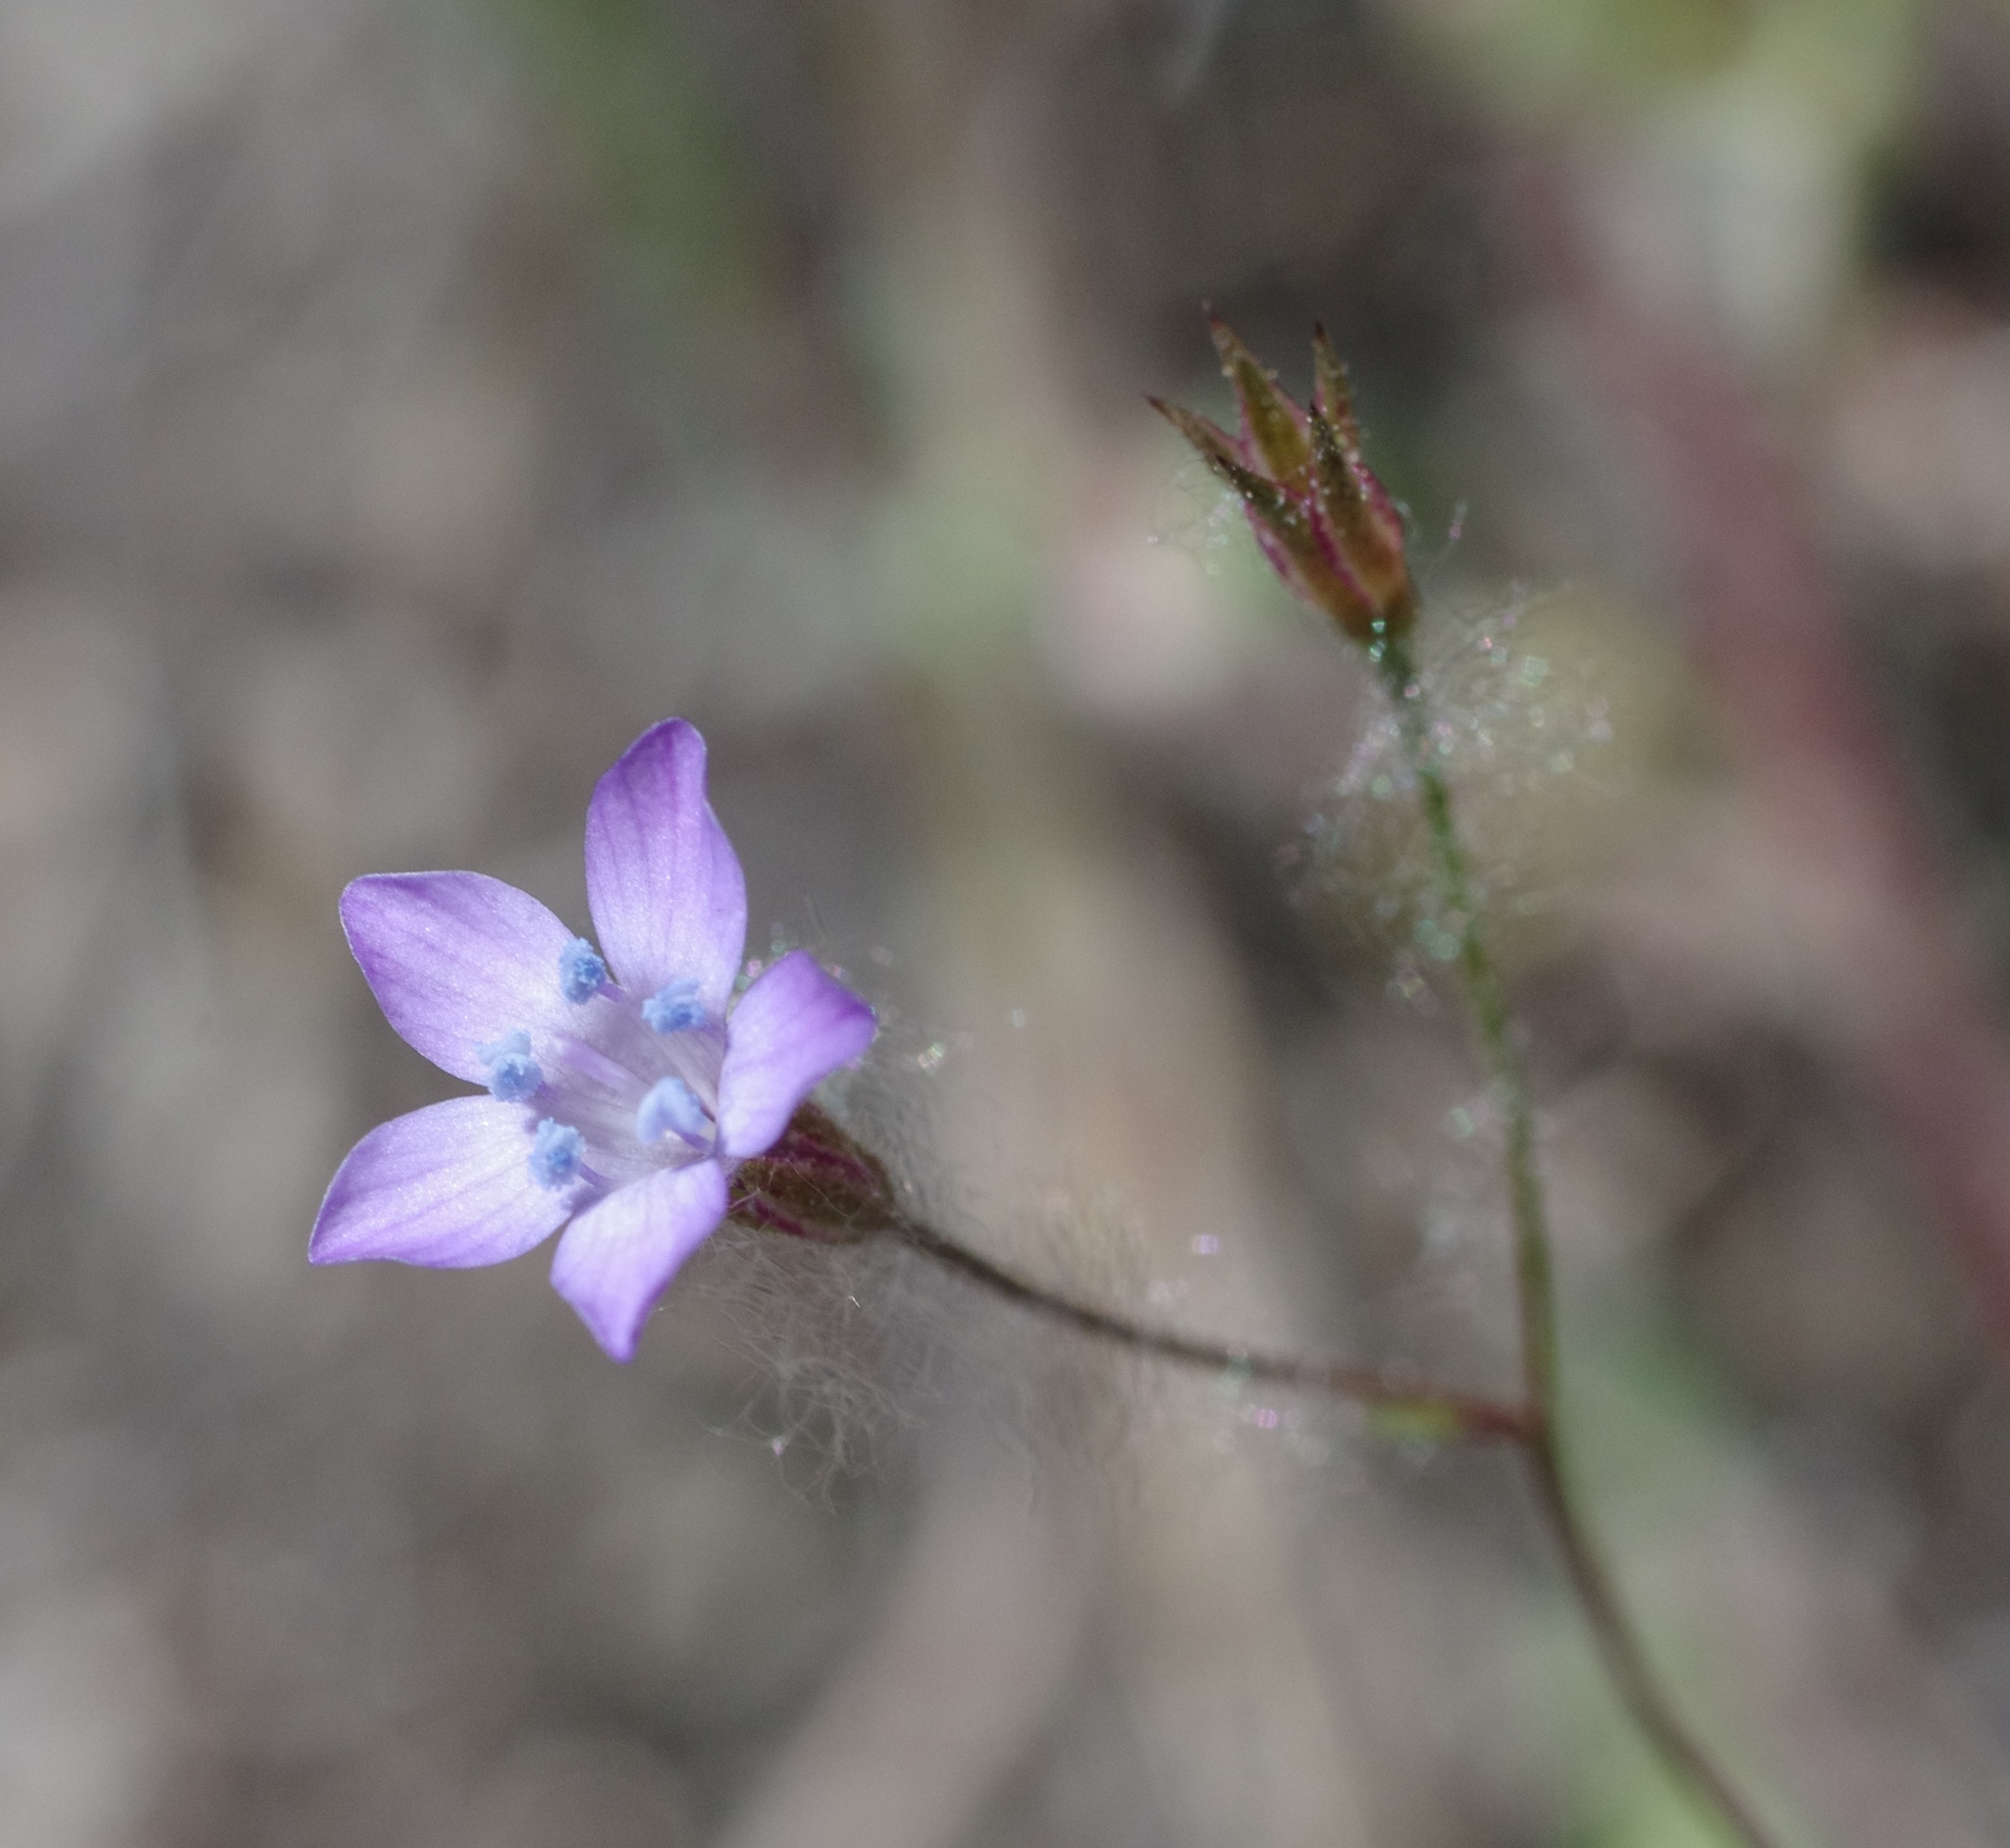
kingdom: Plantae
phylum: Tracheophyta
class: Magnoliopsida
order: Ericales
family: Polemoniaceae
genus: Gilia
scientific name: Gilia achilleifolia
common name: California gily-flower
